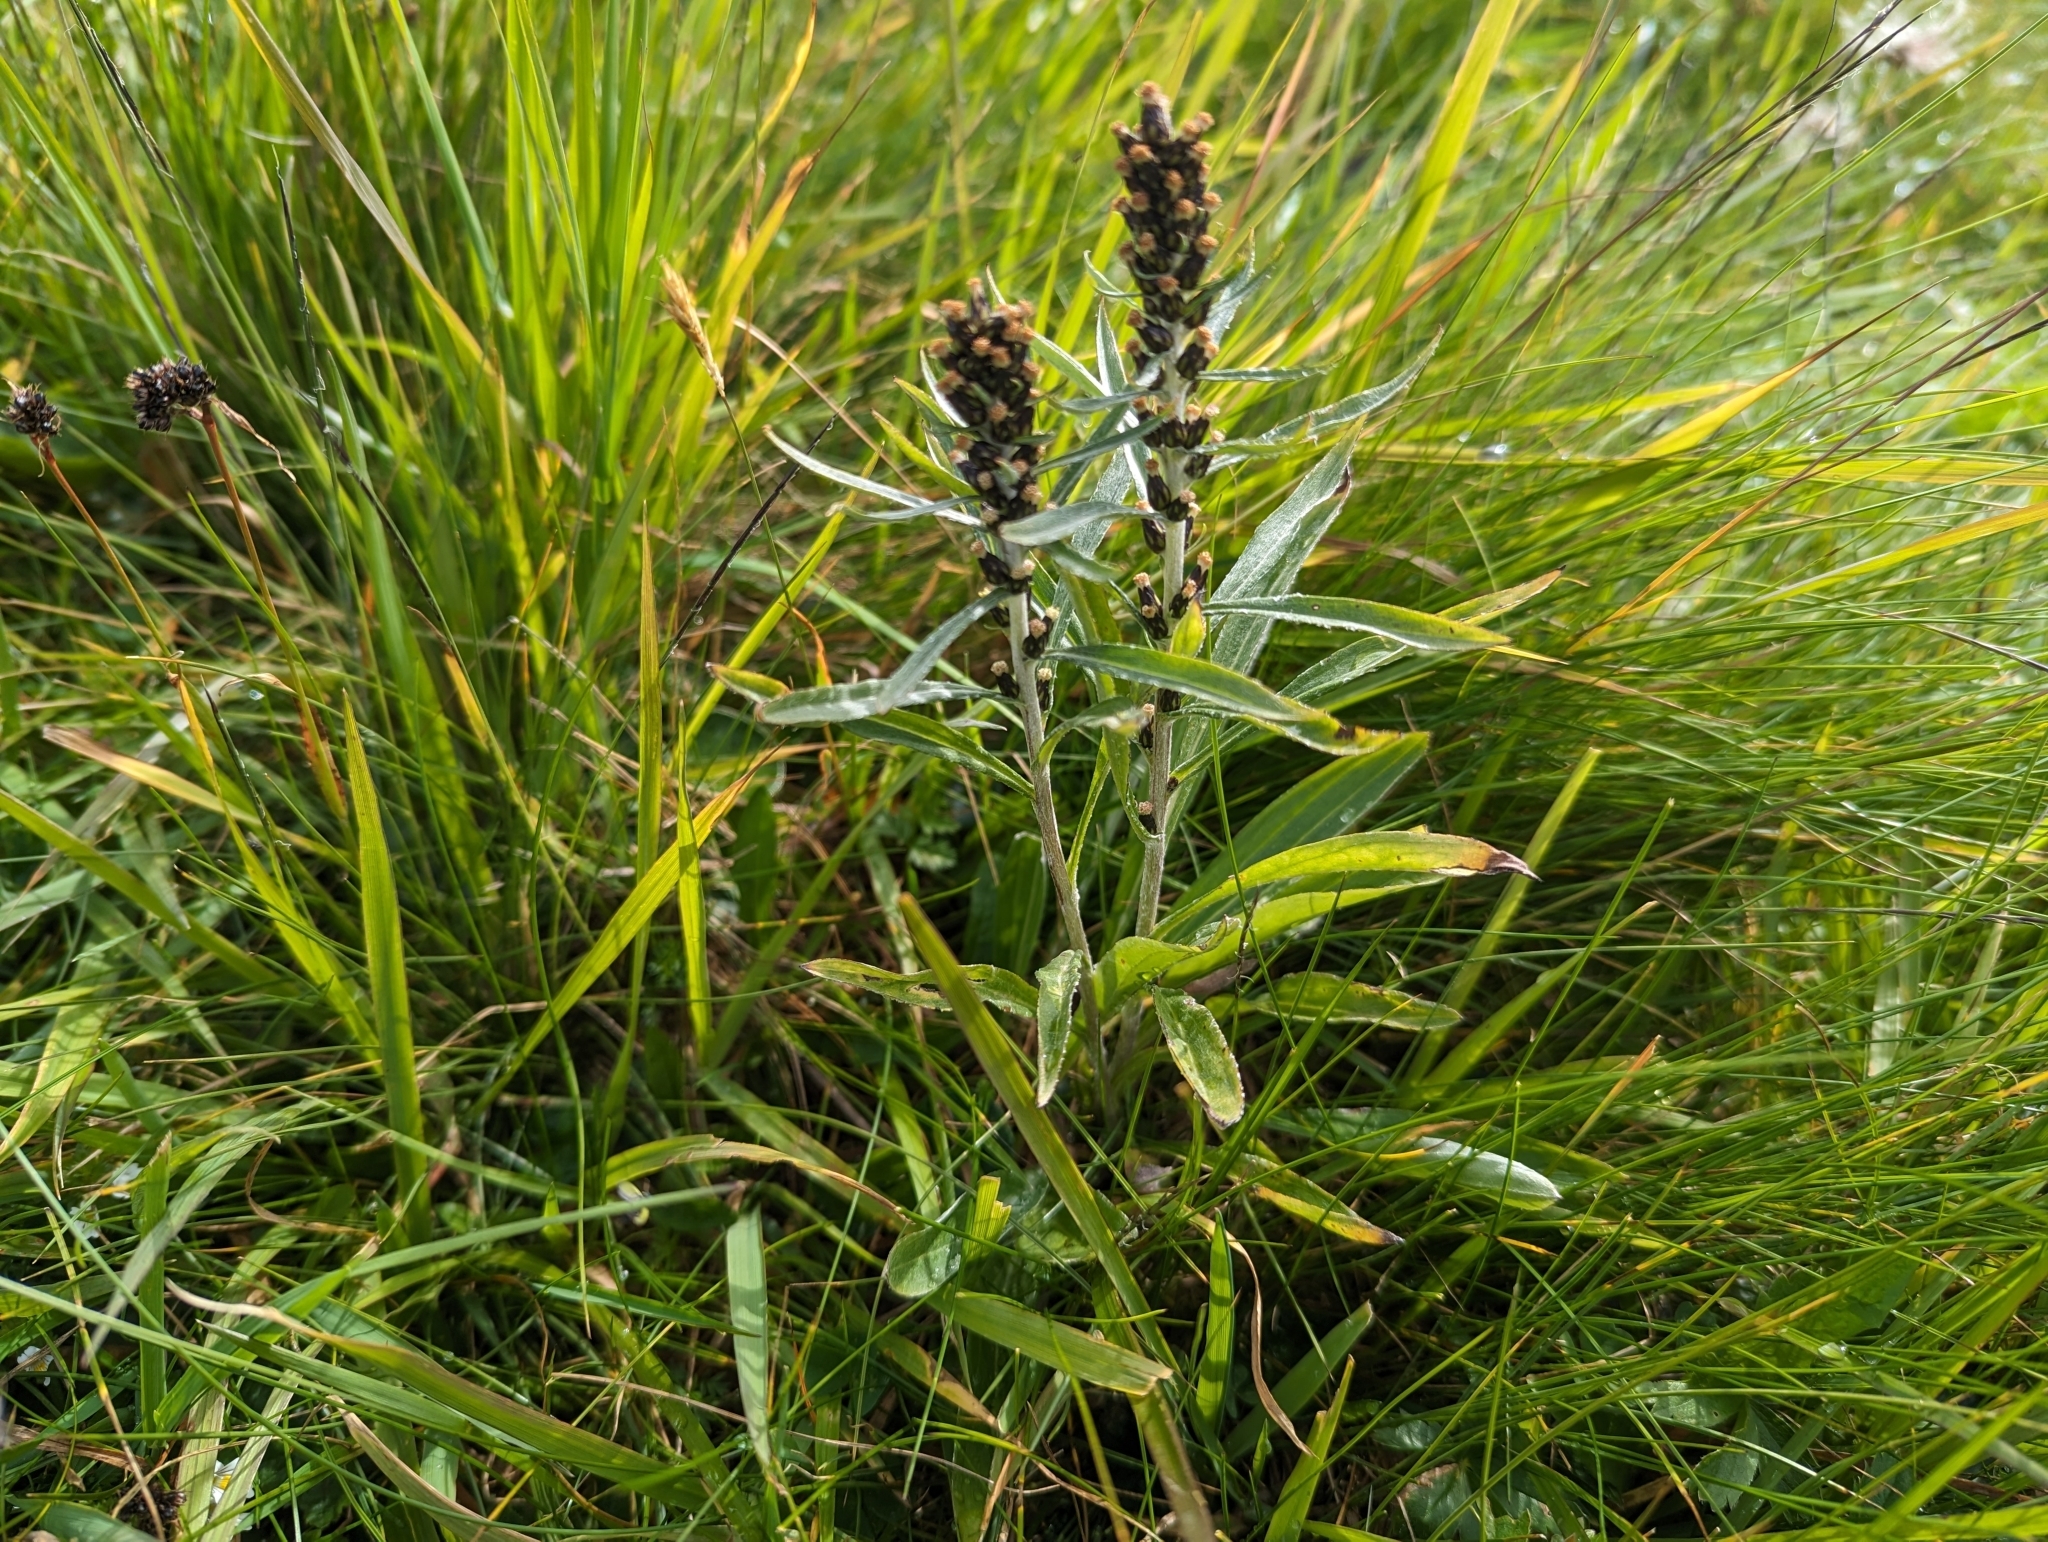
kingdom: Plantae
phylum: Tracheophyta
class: Magnoliopsida
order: Asterales
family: Asteraceae
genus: Omalotheca
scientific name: Omalotheca norvegica
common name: Norwegian arctic-cudweed
